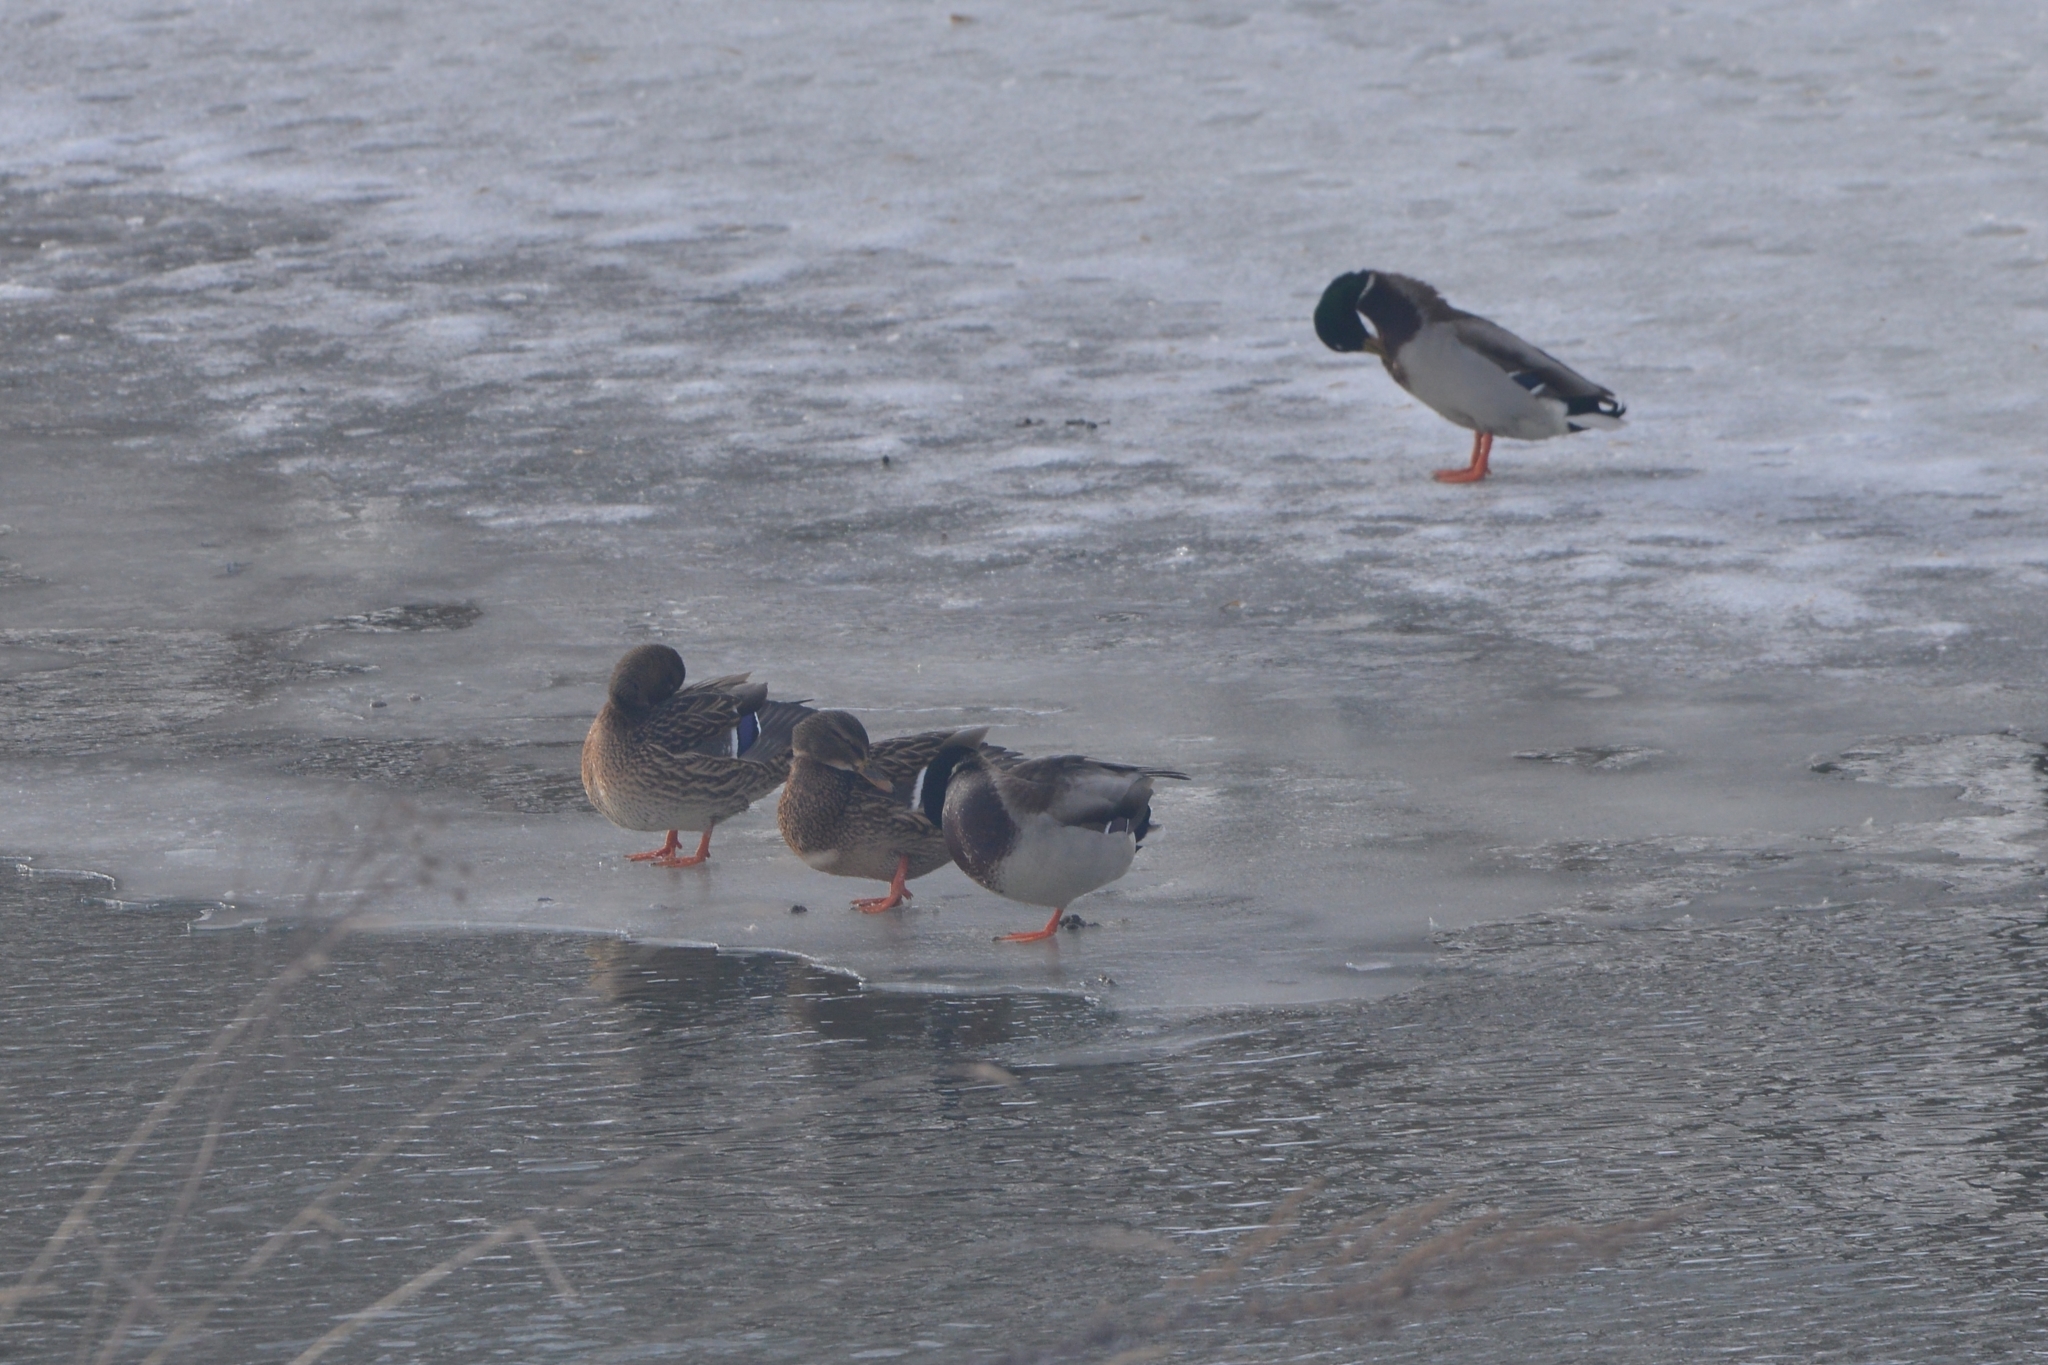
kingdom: Animalia
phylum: Chordata
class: Aves
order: Anseriformes
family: Anatidae
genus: Anas
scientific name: Anas platyrhynchos
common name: Mallard
